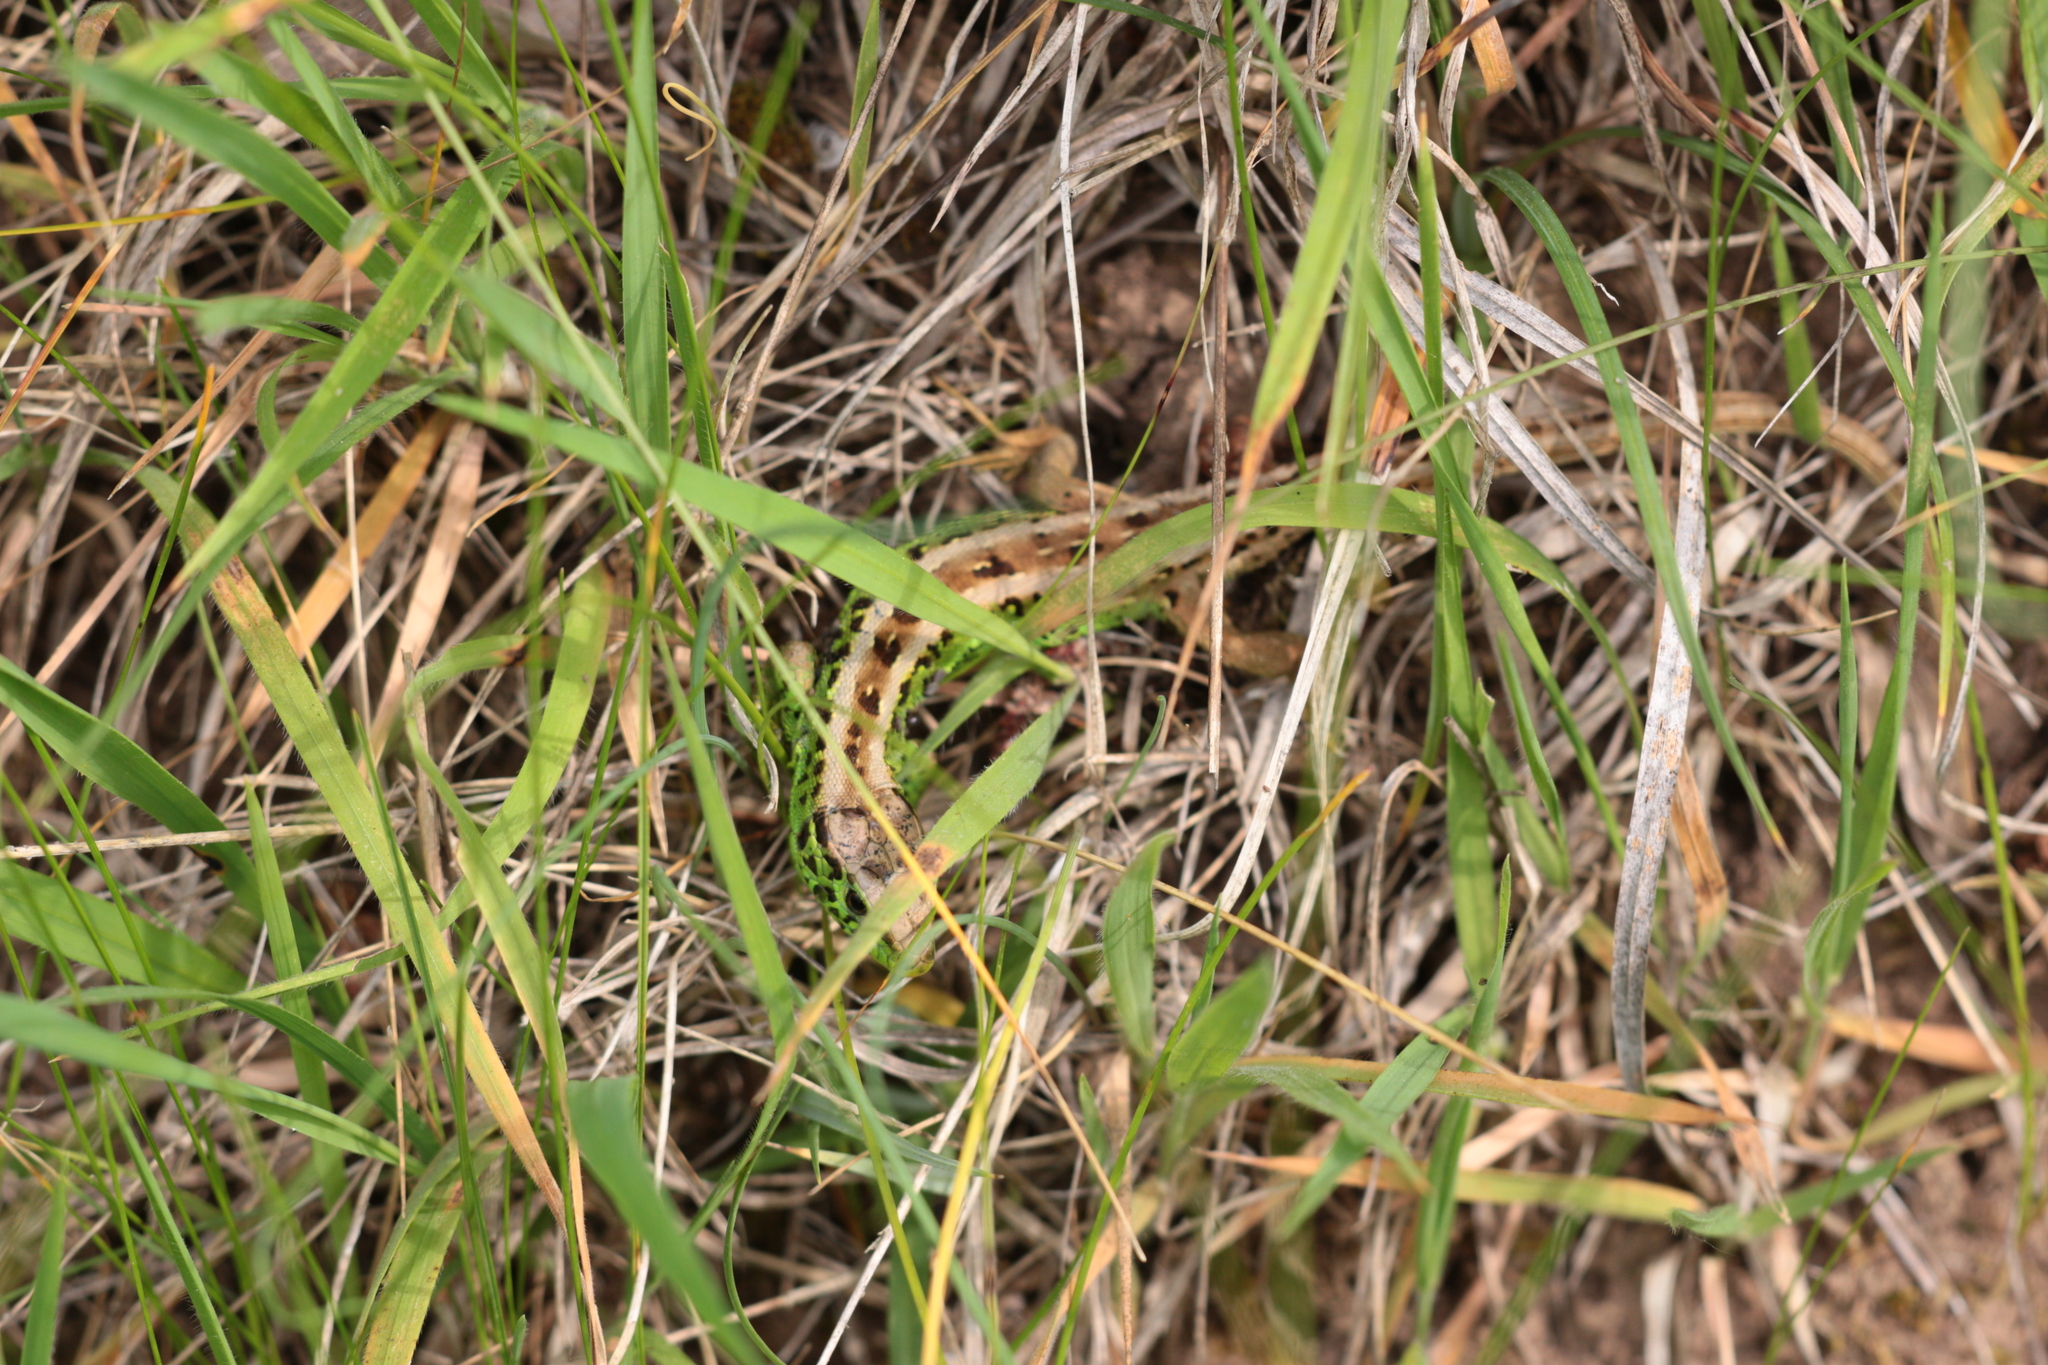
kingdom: Animalia
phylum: Chordata
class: Squamata
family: Lacertidae
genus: Lacerta
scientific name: Lacerta agilis
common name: Sand lizard
